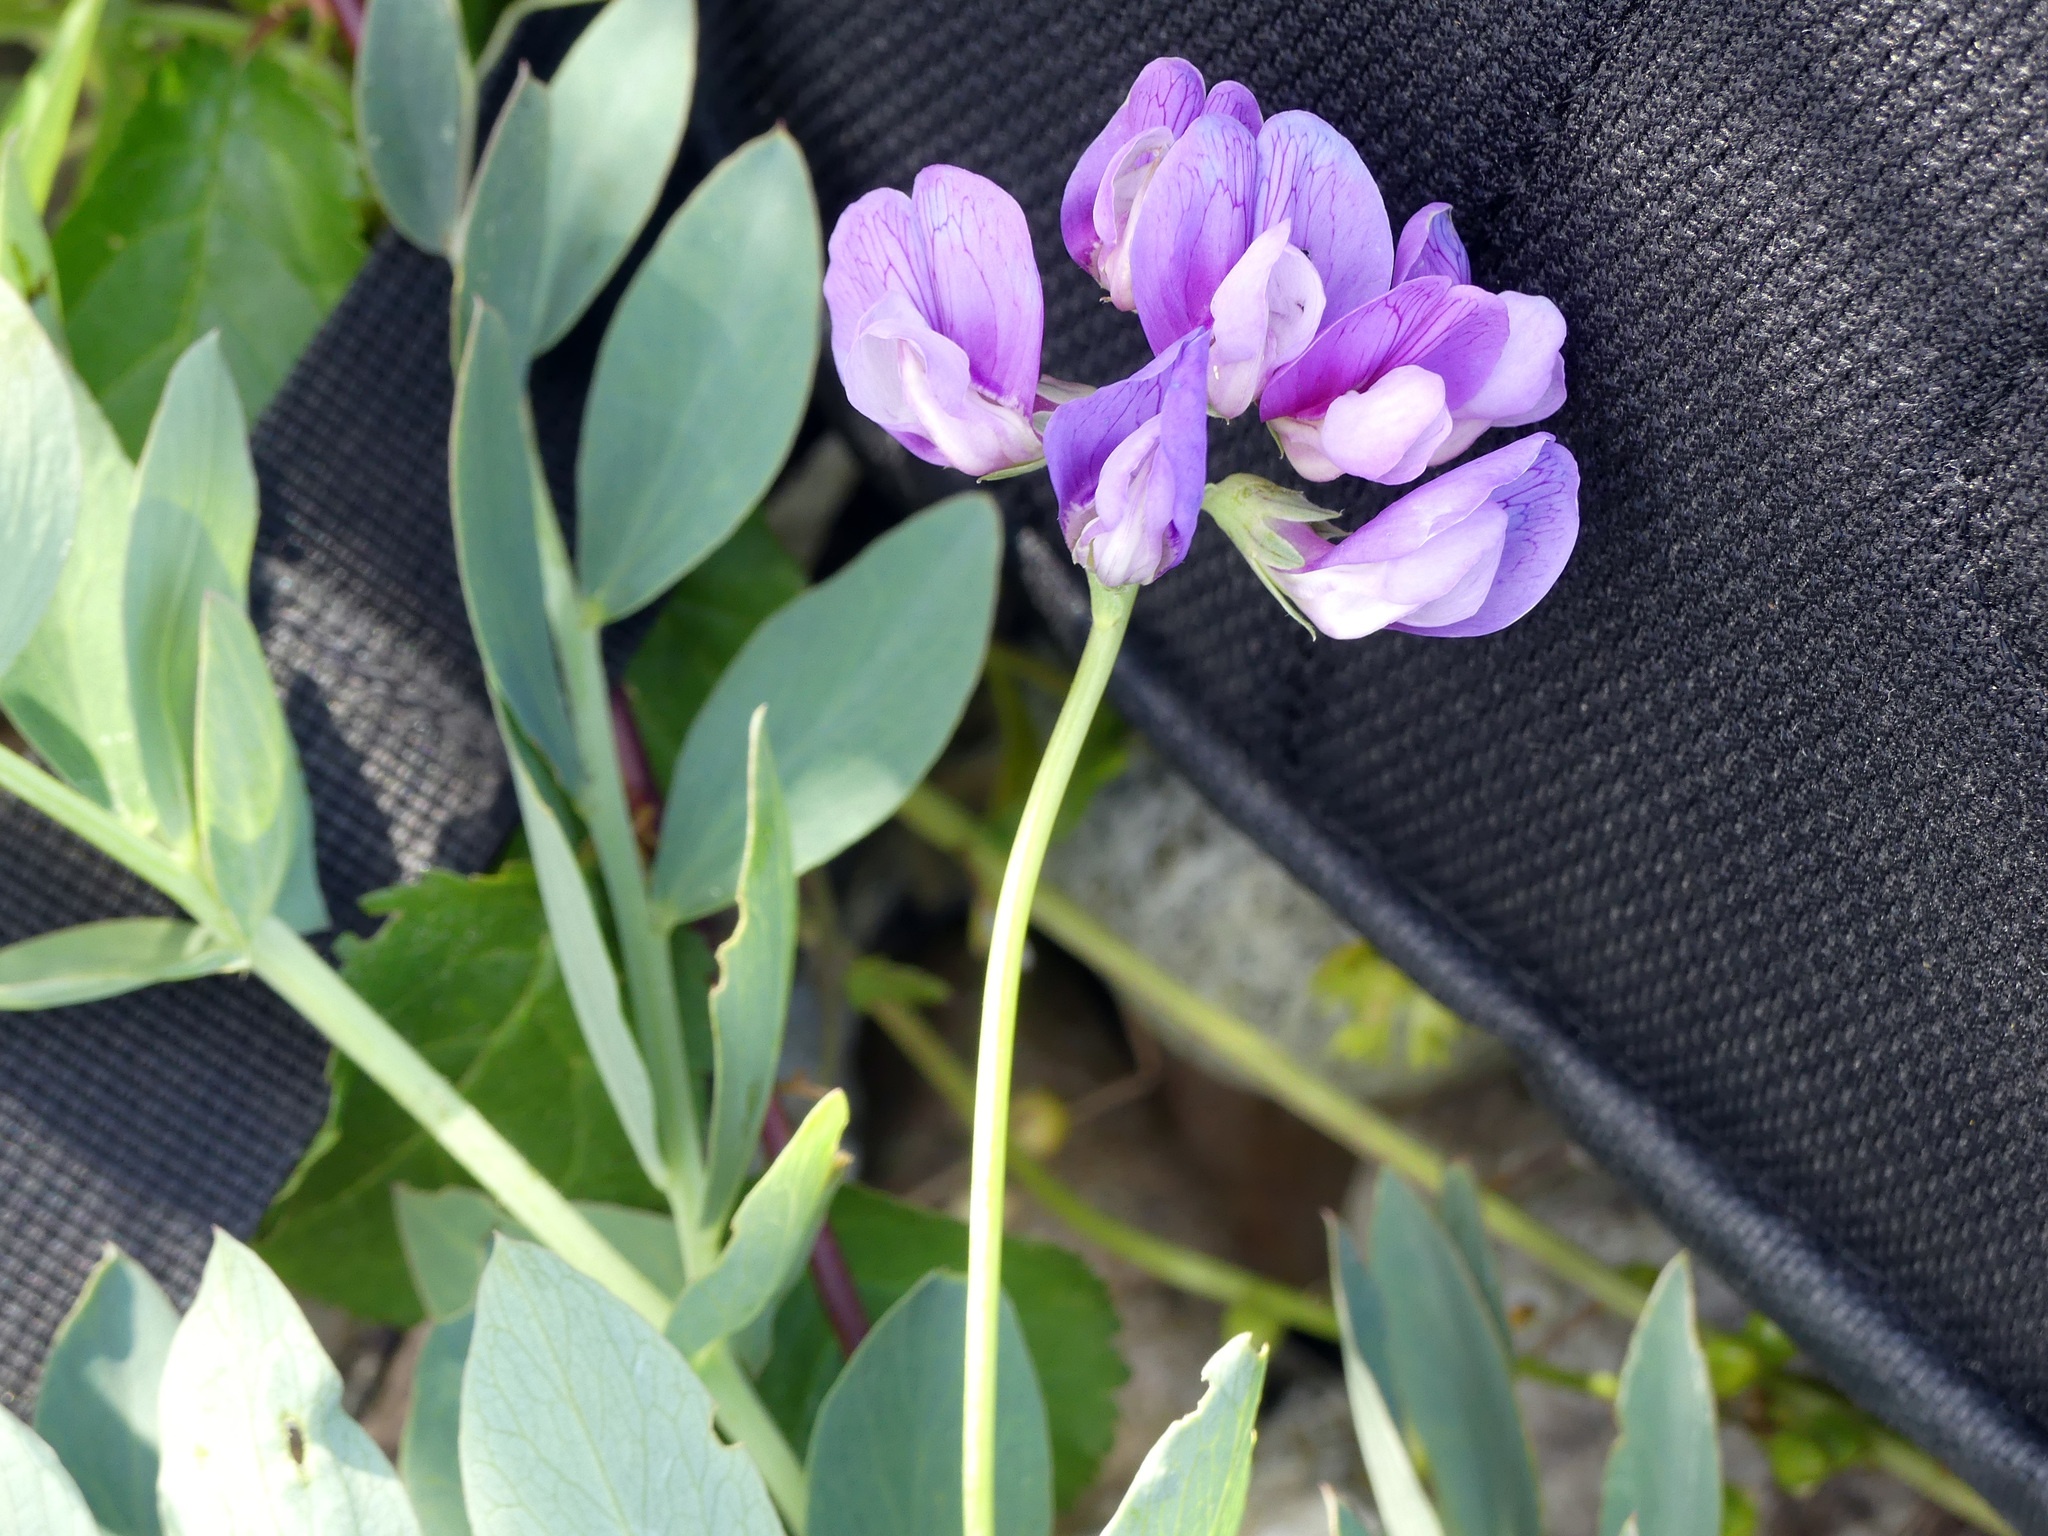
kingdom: Plantae
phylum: Tracheophyta
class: Magnoliopsida
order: Fabales
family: Fabaceae
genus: Lathyrus
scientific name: Lathyrus japonicus
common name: Sea pea
